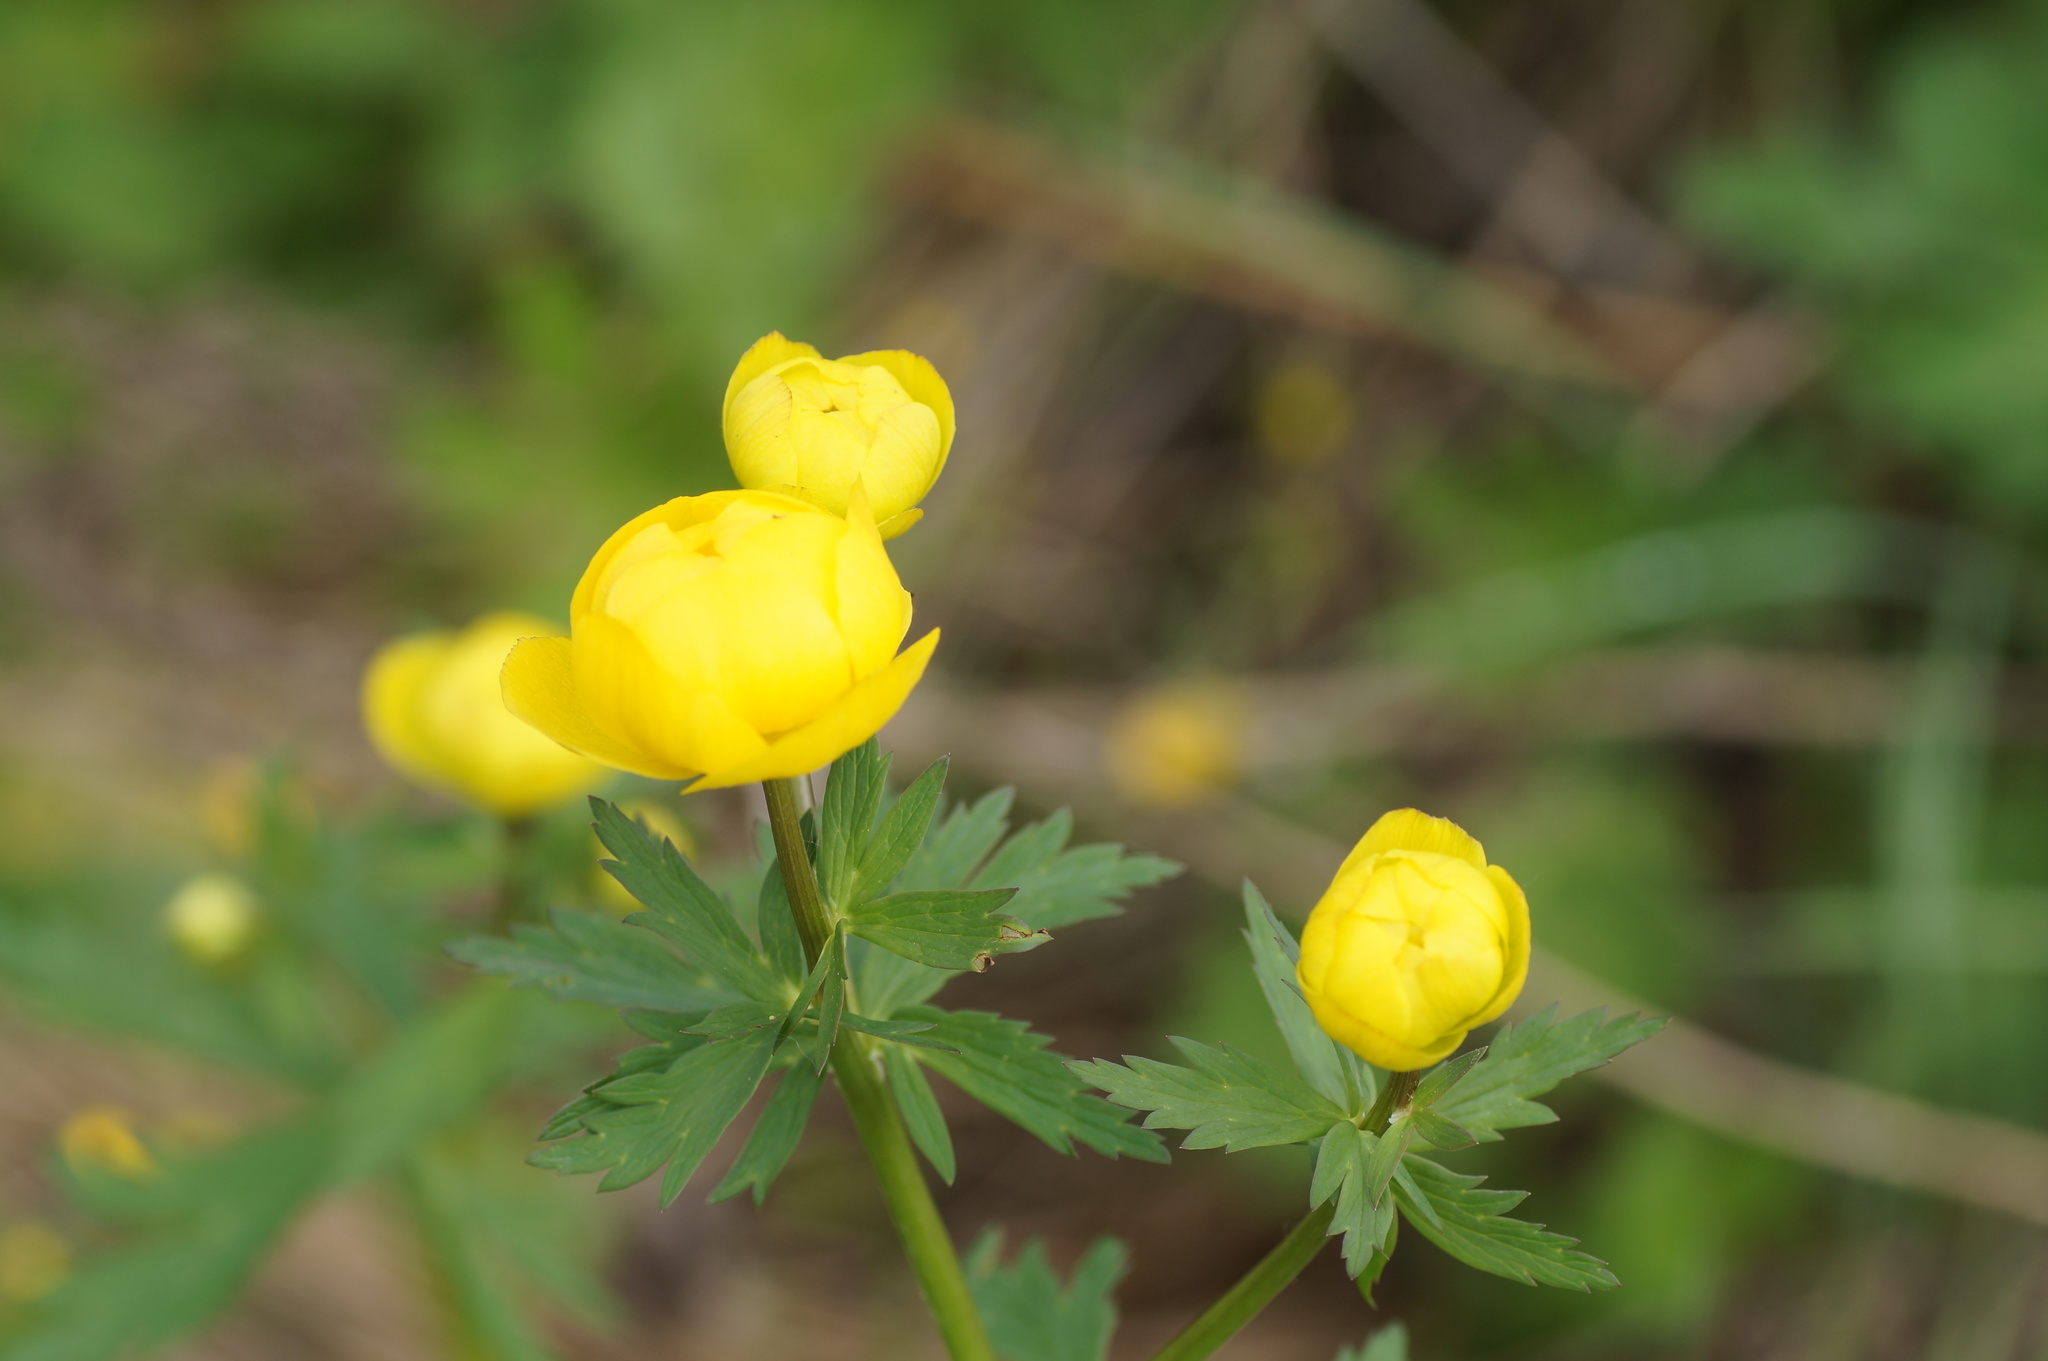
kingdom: Plantae
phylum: Tracheophyta
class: Magnoliopsida
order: Ranunculales
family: Ranunculaceae
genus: Trollius
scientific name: Trollius europaeus
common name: European globeflower
